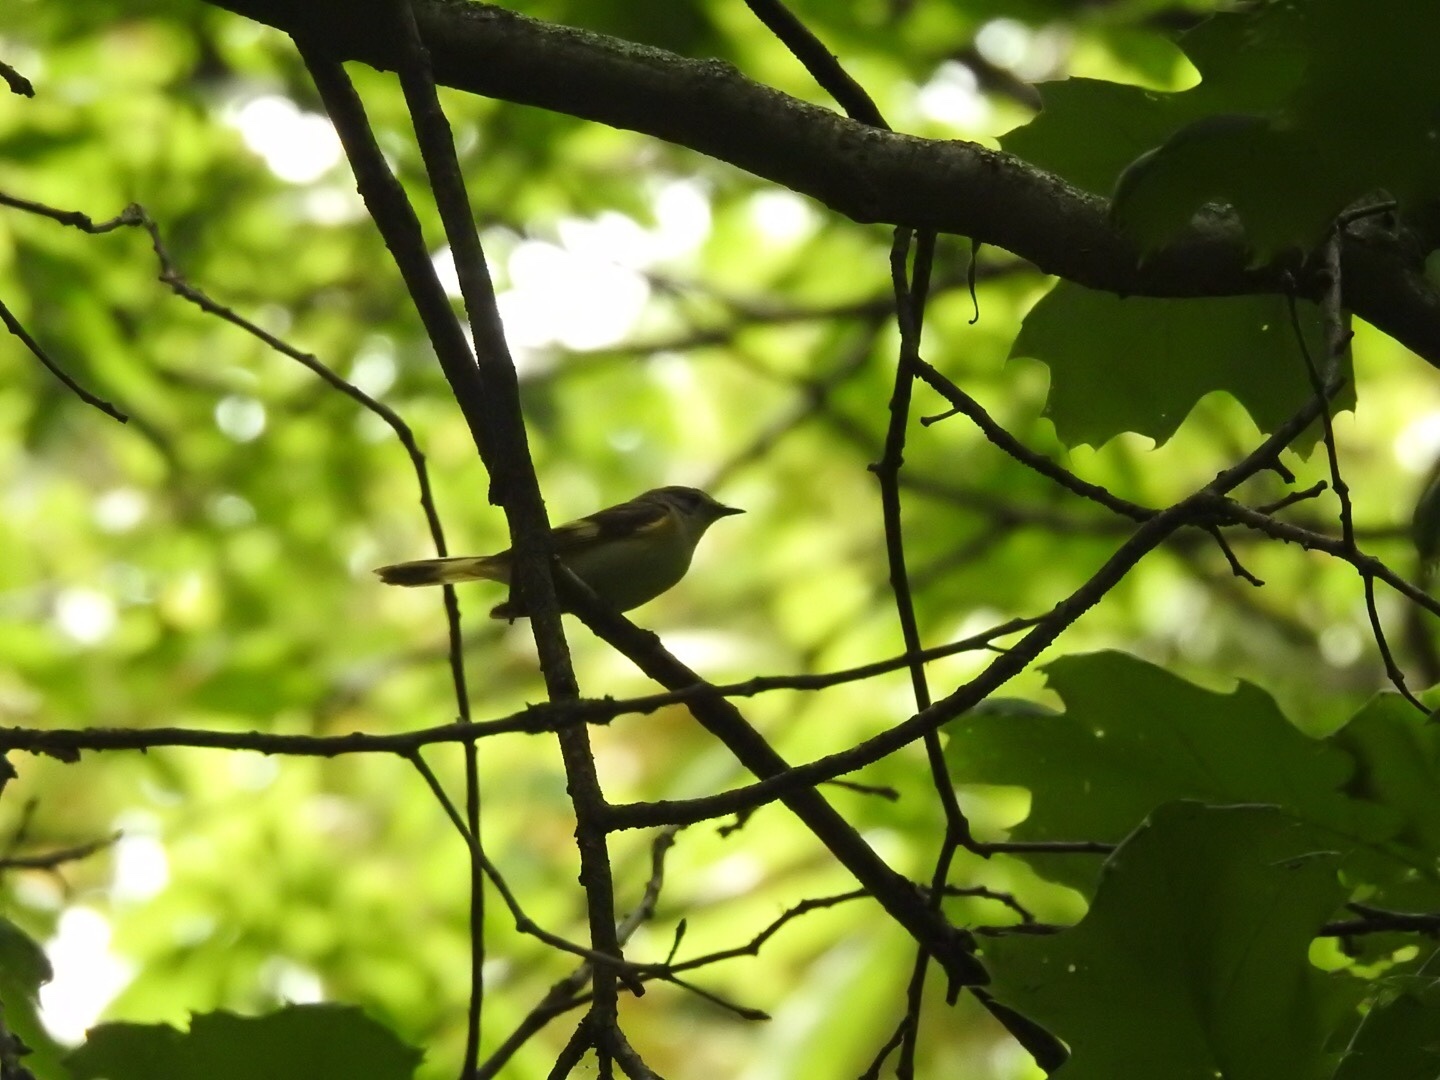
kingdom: Animalia
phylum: Chordata
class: Aves
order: Passeriformes
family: Parulidae
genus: Setophaga
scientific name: Setophaga ruticilla
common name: American redstart
